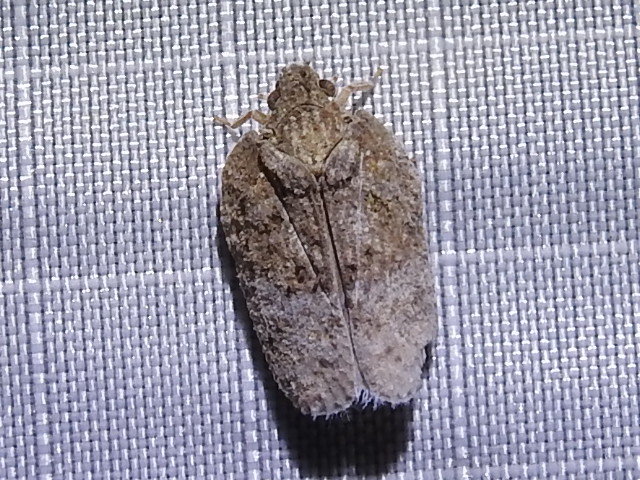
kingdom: Animalia
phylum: Arthropoda
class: Insecta
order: Hemiptera
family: Flatidae
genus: Flatoidinus
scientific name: Flatoidinus punctatus
